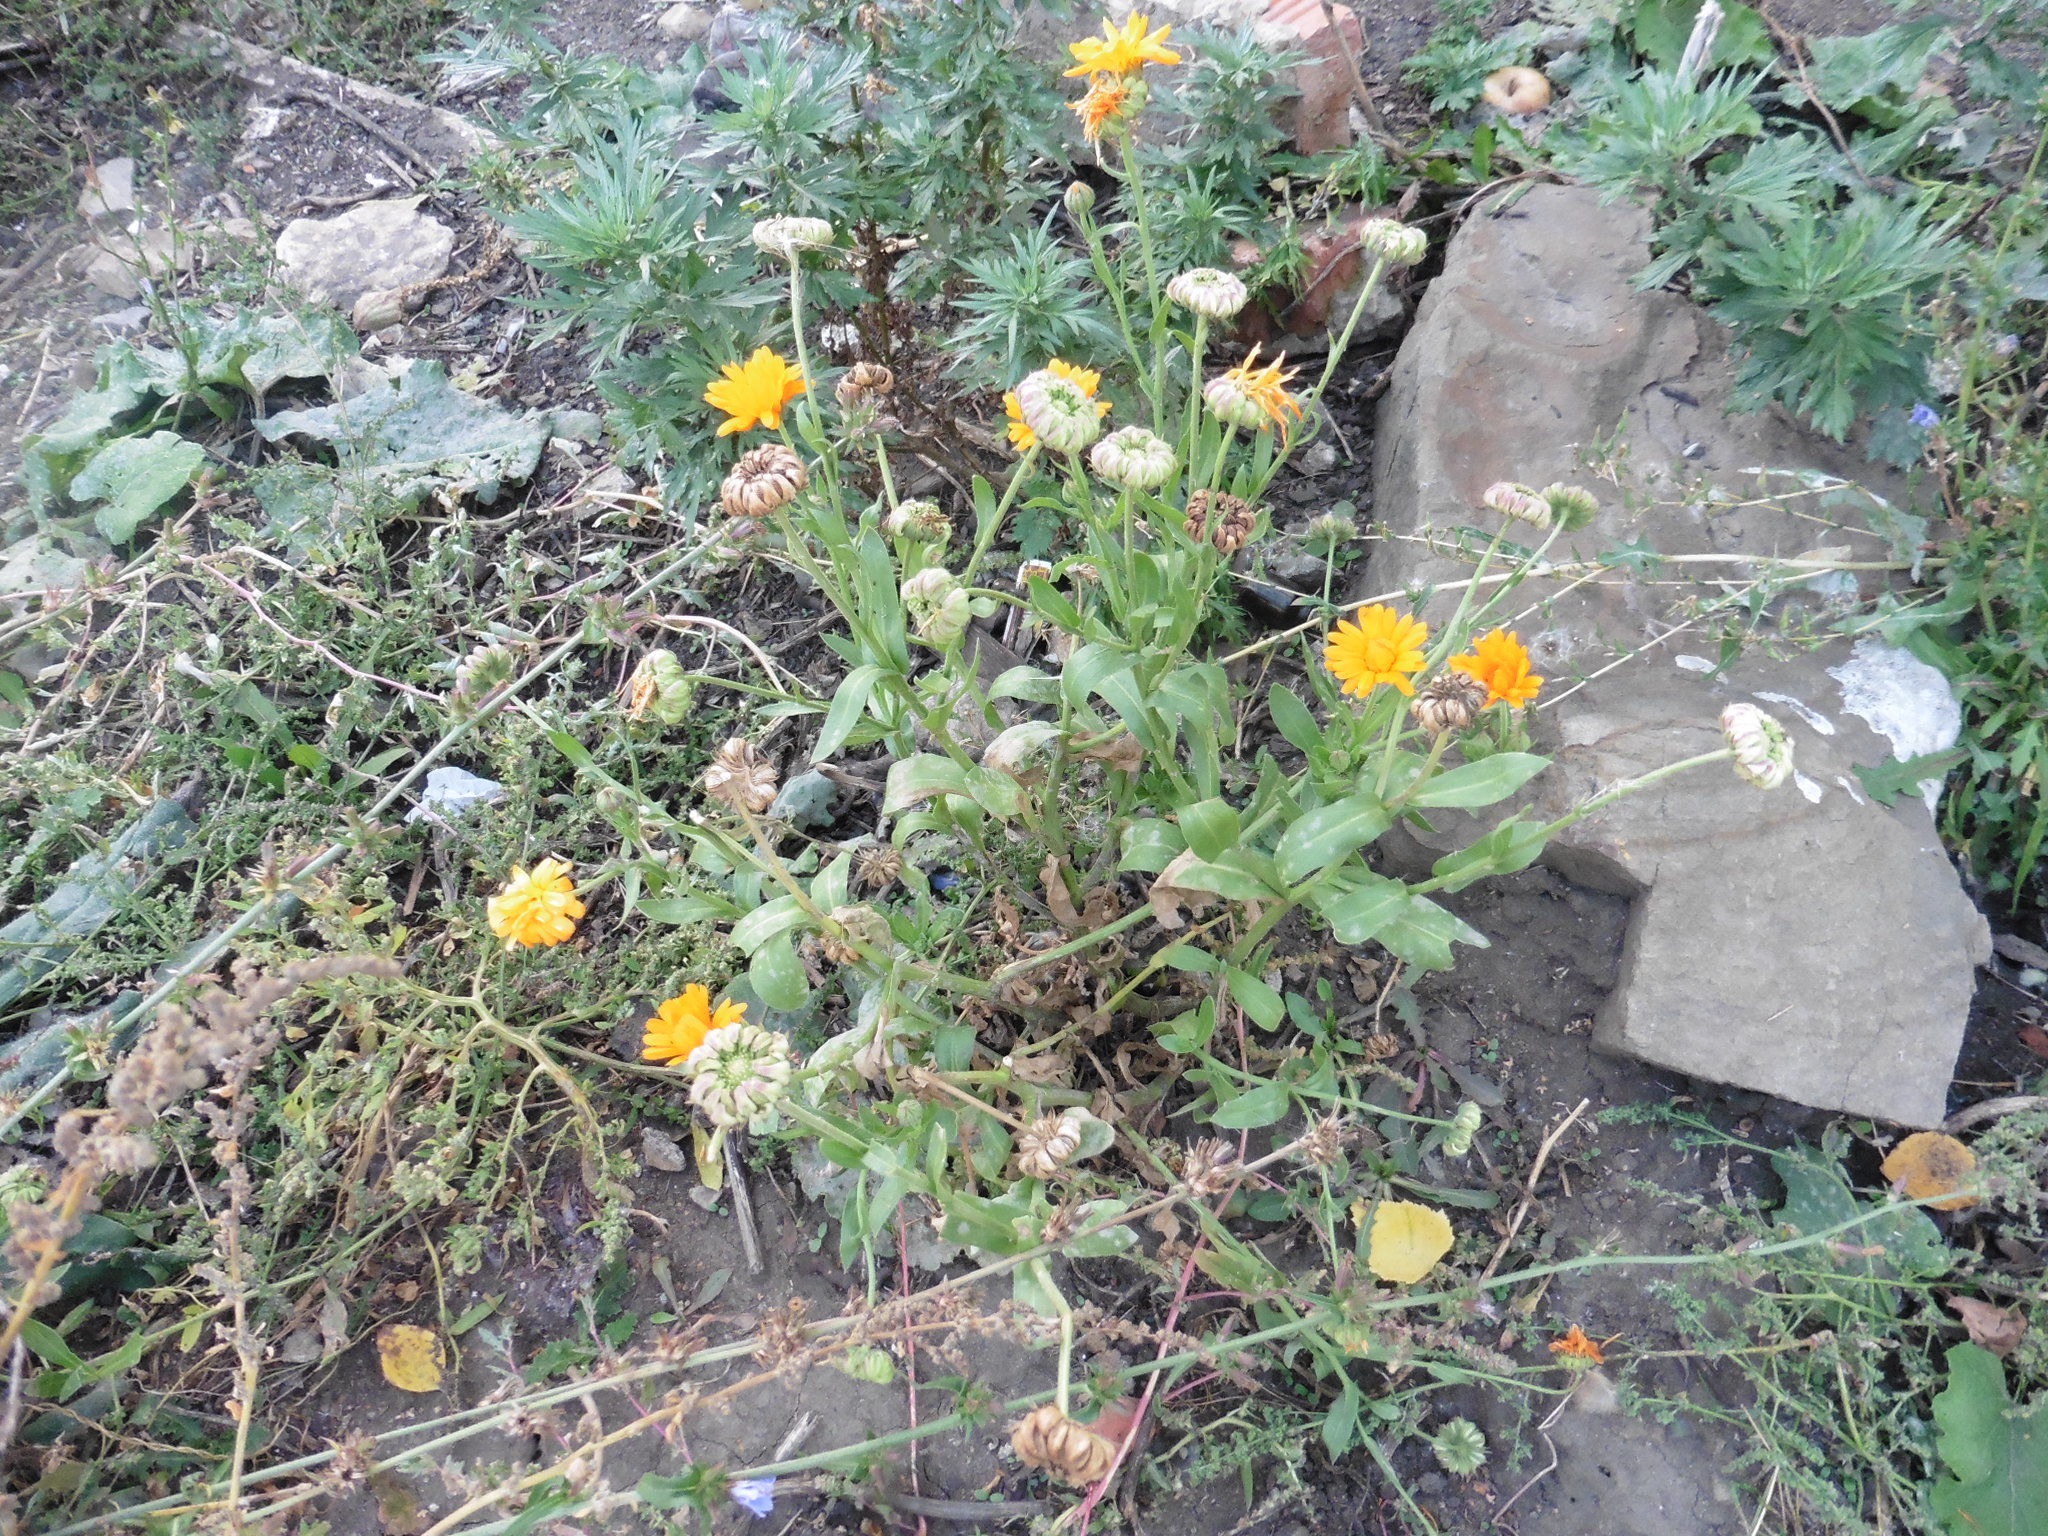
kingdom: Plantae
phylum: Tracheophyta
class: Magnoliopsida
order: Asterales
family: Asteraceae
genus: Calendula
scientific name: Calendula officinalis
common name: Pot marigold
